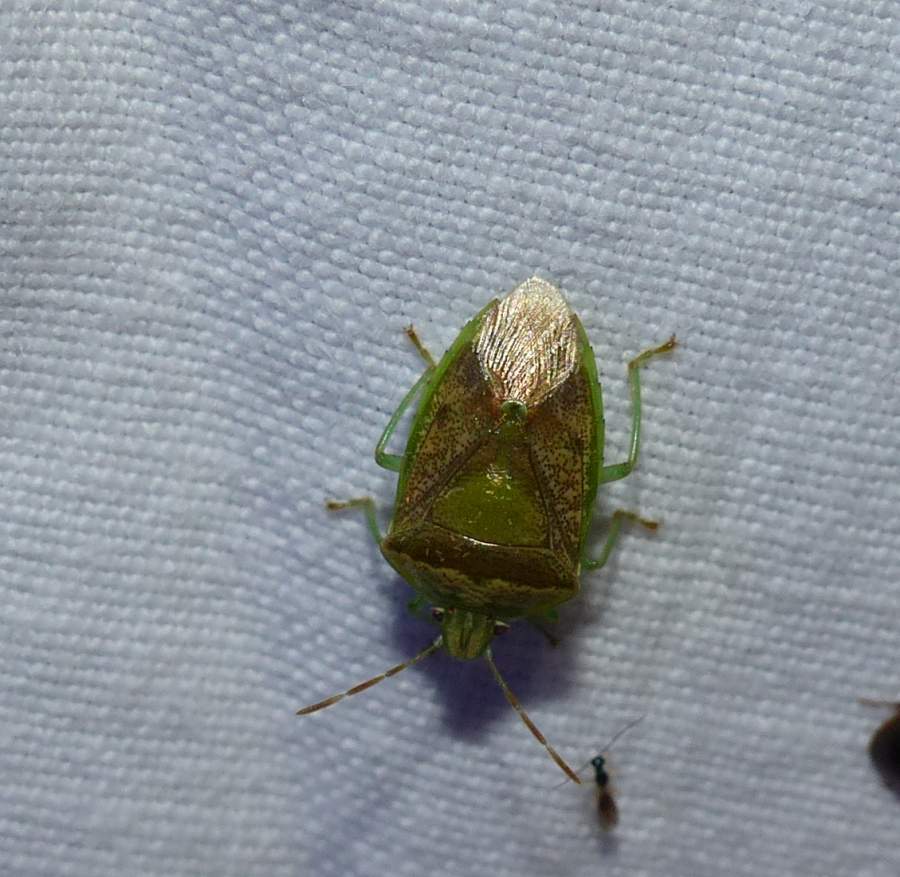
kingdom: Animalia
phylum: Arthropoda
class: Insecta
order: Hemiptera
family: Pentatomidae
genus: Banasa
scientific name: Banasa calva
